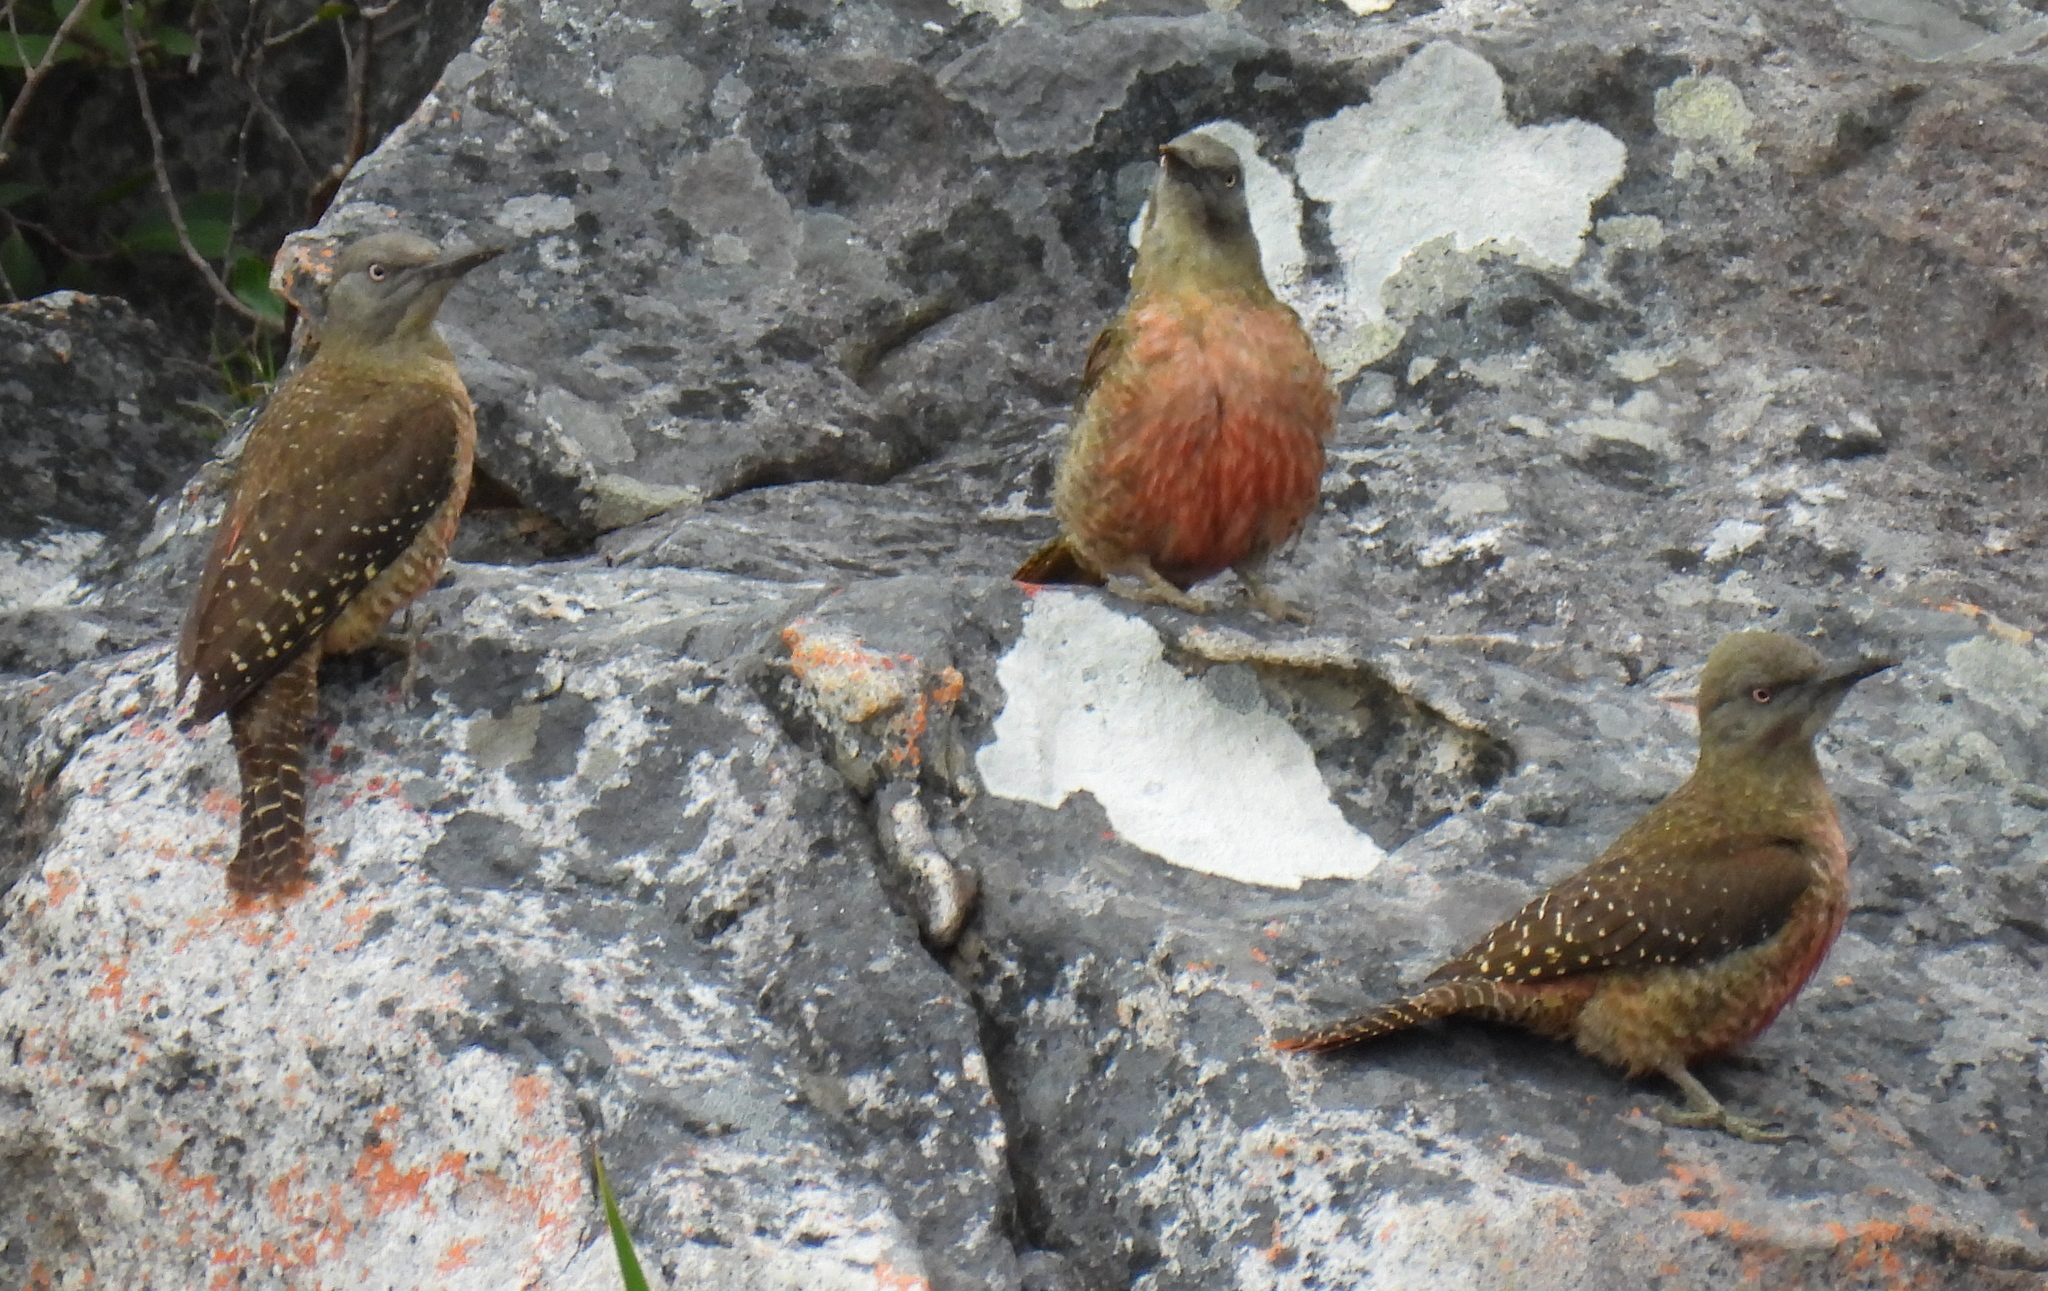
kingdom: Animalia
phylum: Chordata
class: Aves
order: Piciformes
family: Picidae
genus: Geocolaptes
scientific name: Geocolaptes olivaceus
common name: Ground woodpecker
